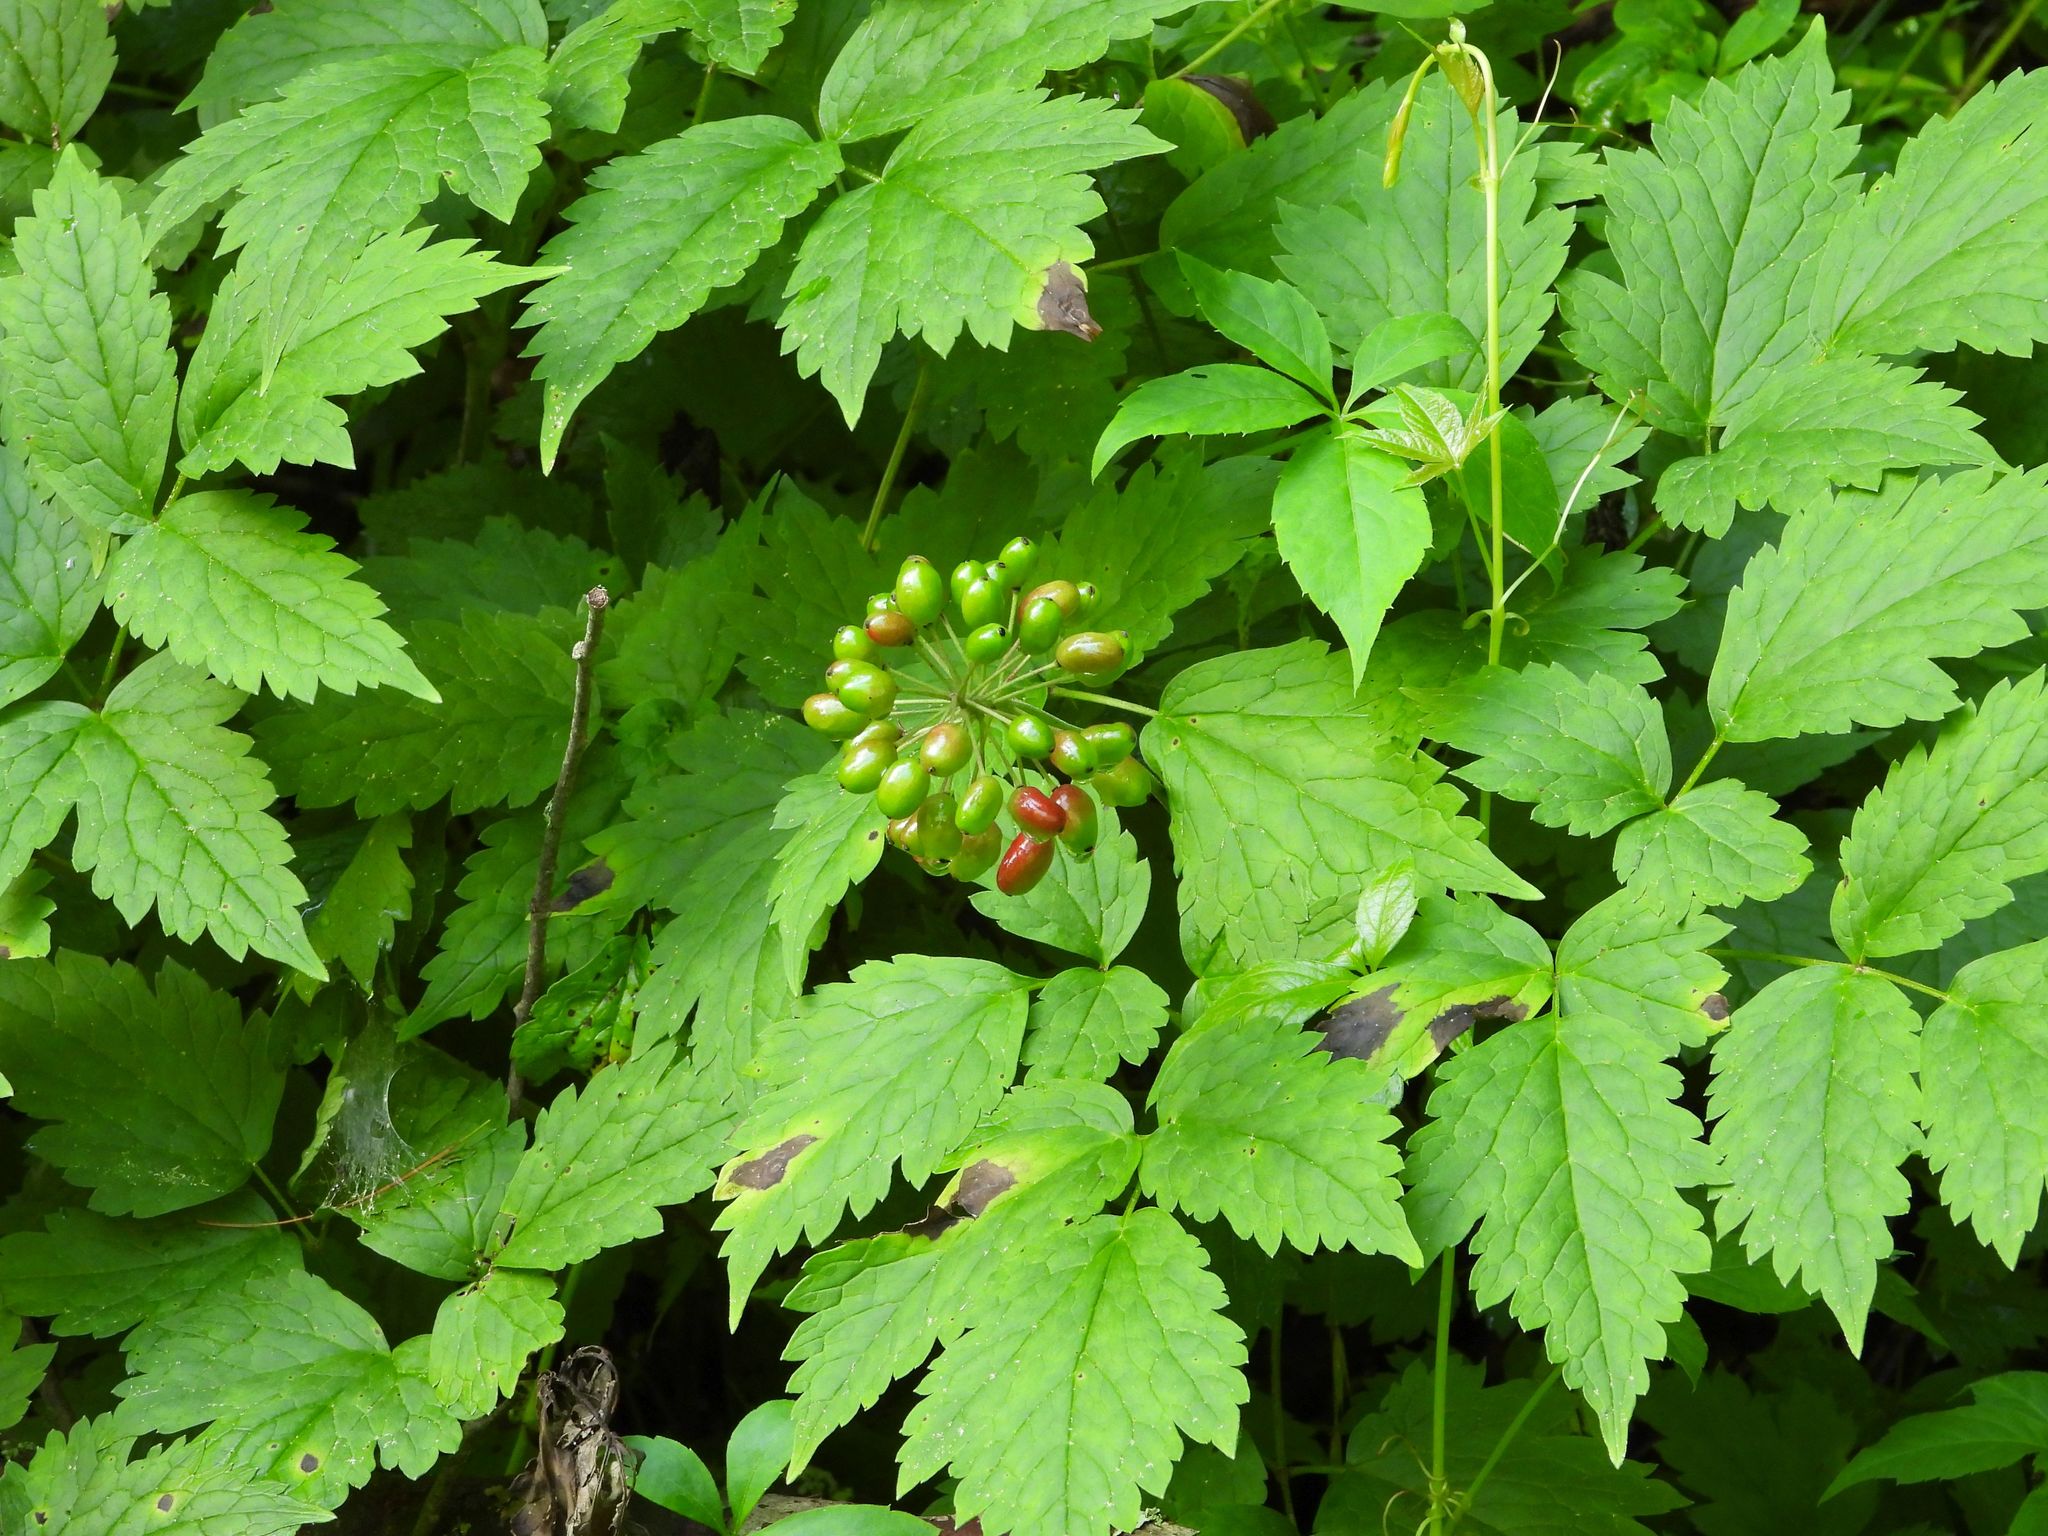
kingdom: Plantae
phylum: Tracheophyta
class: Magnoliopsida
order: Ranunculales
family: Ranunculaceae
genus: Actaea
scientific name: Actaea rubra
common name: Red baneberry
